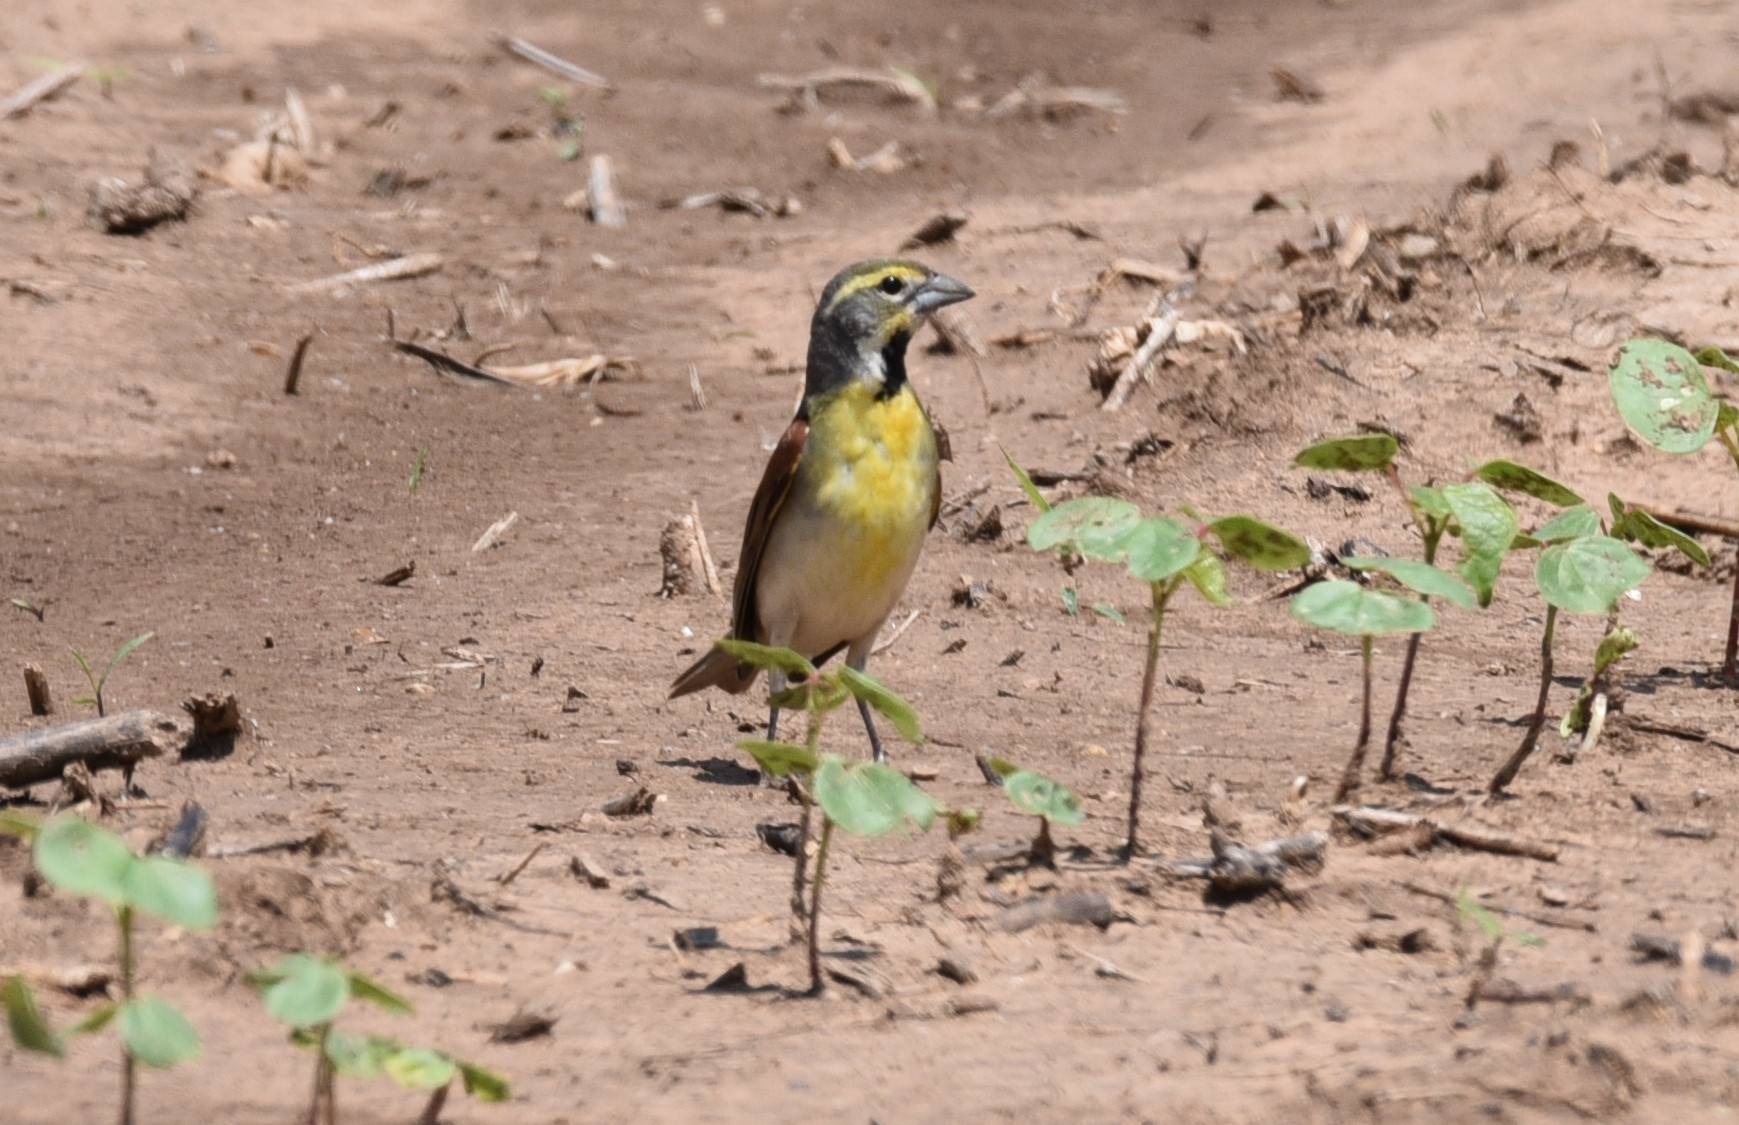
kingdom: Animalia
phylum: Chordata
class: Aves
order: Passeriformes
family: Cardinalidae
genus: Spiza
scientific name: Spiza americana
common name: Dickcissel
